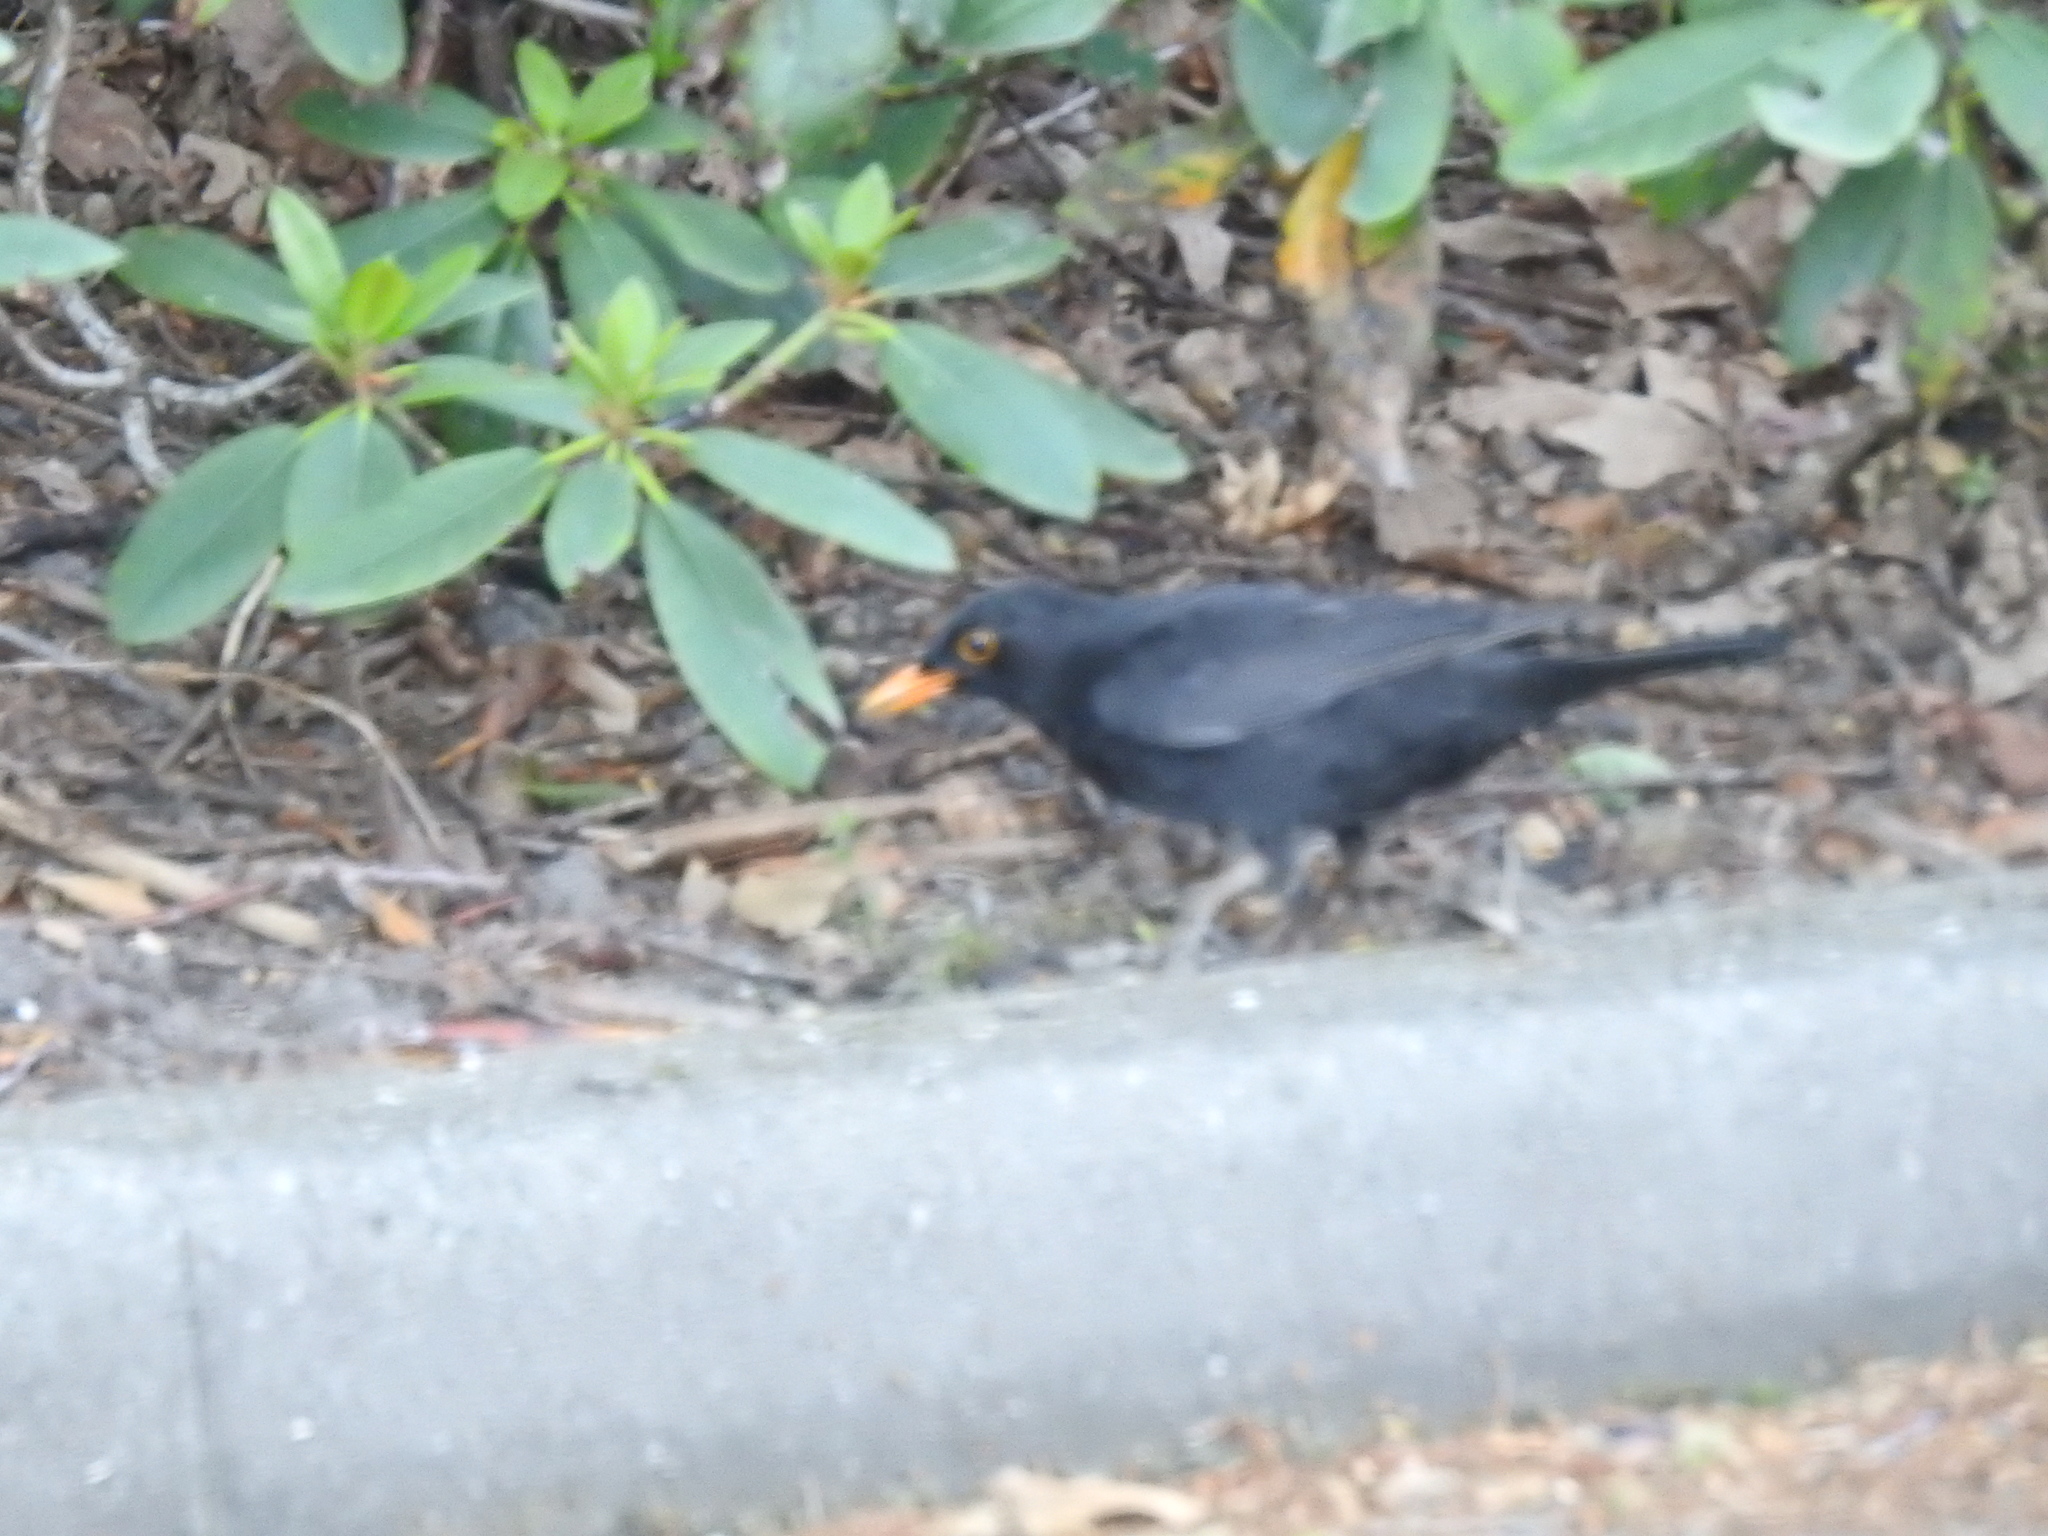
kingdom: Animalia
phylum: Chordata
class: Aves
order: Passeriformes
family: Turdidae
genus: Turdus
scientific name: Turdus merula
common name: Common blackbird
